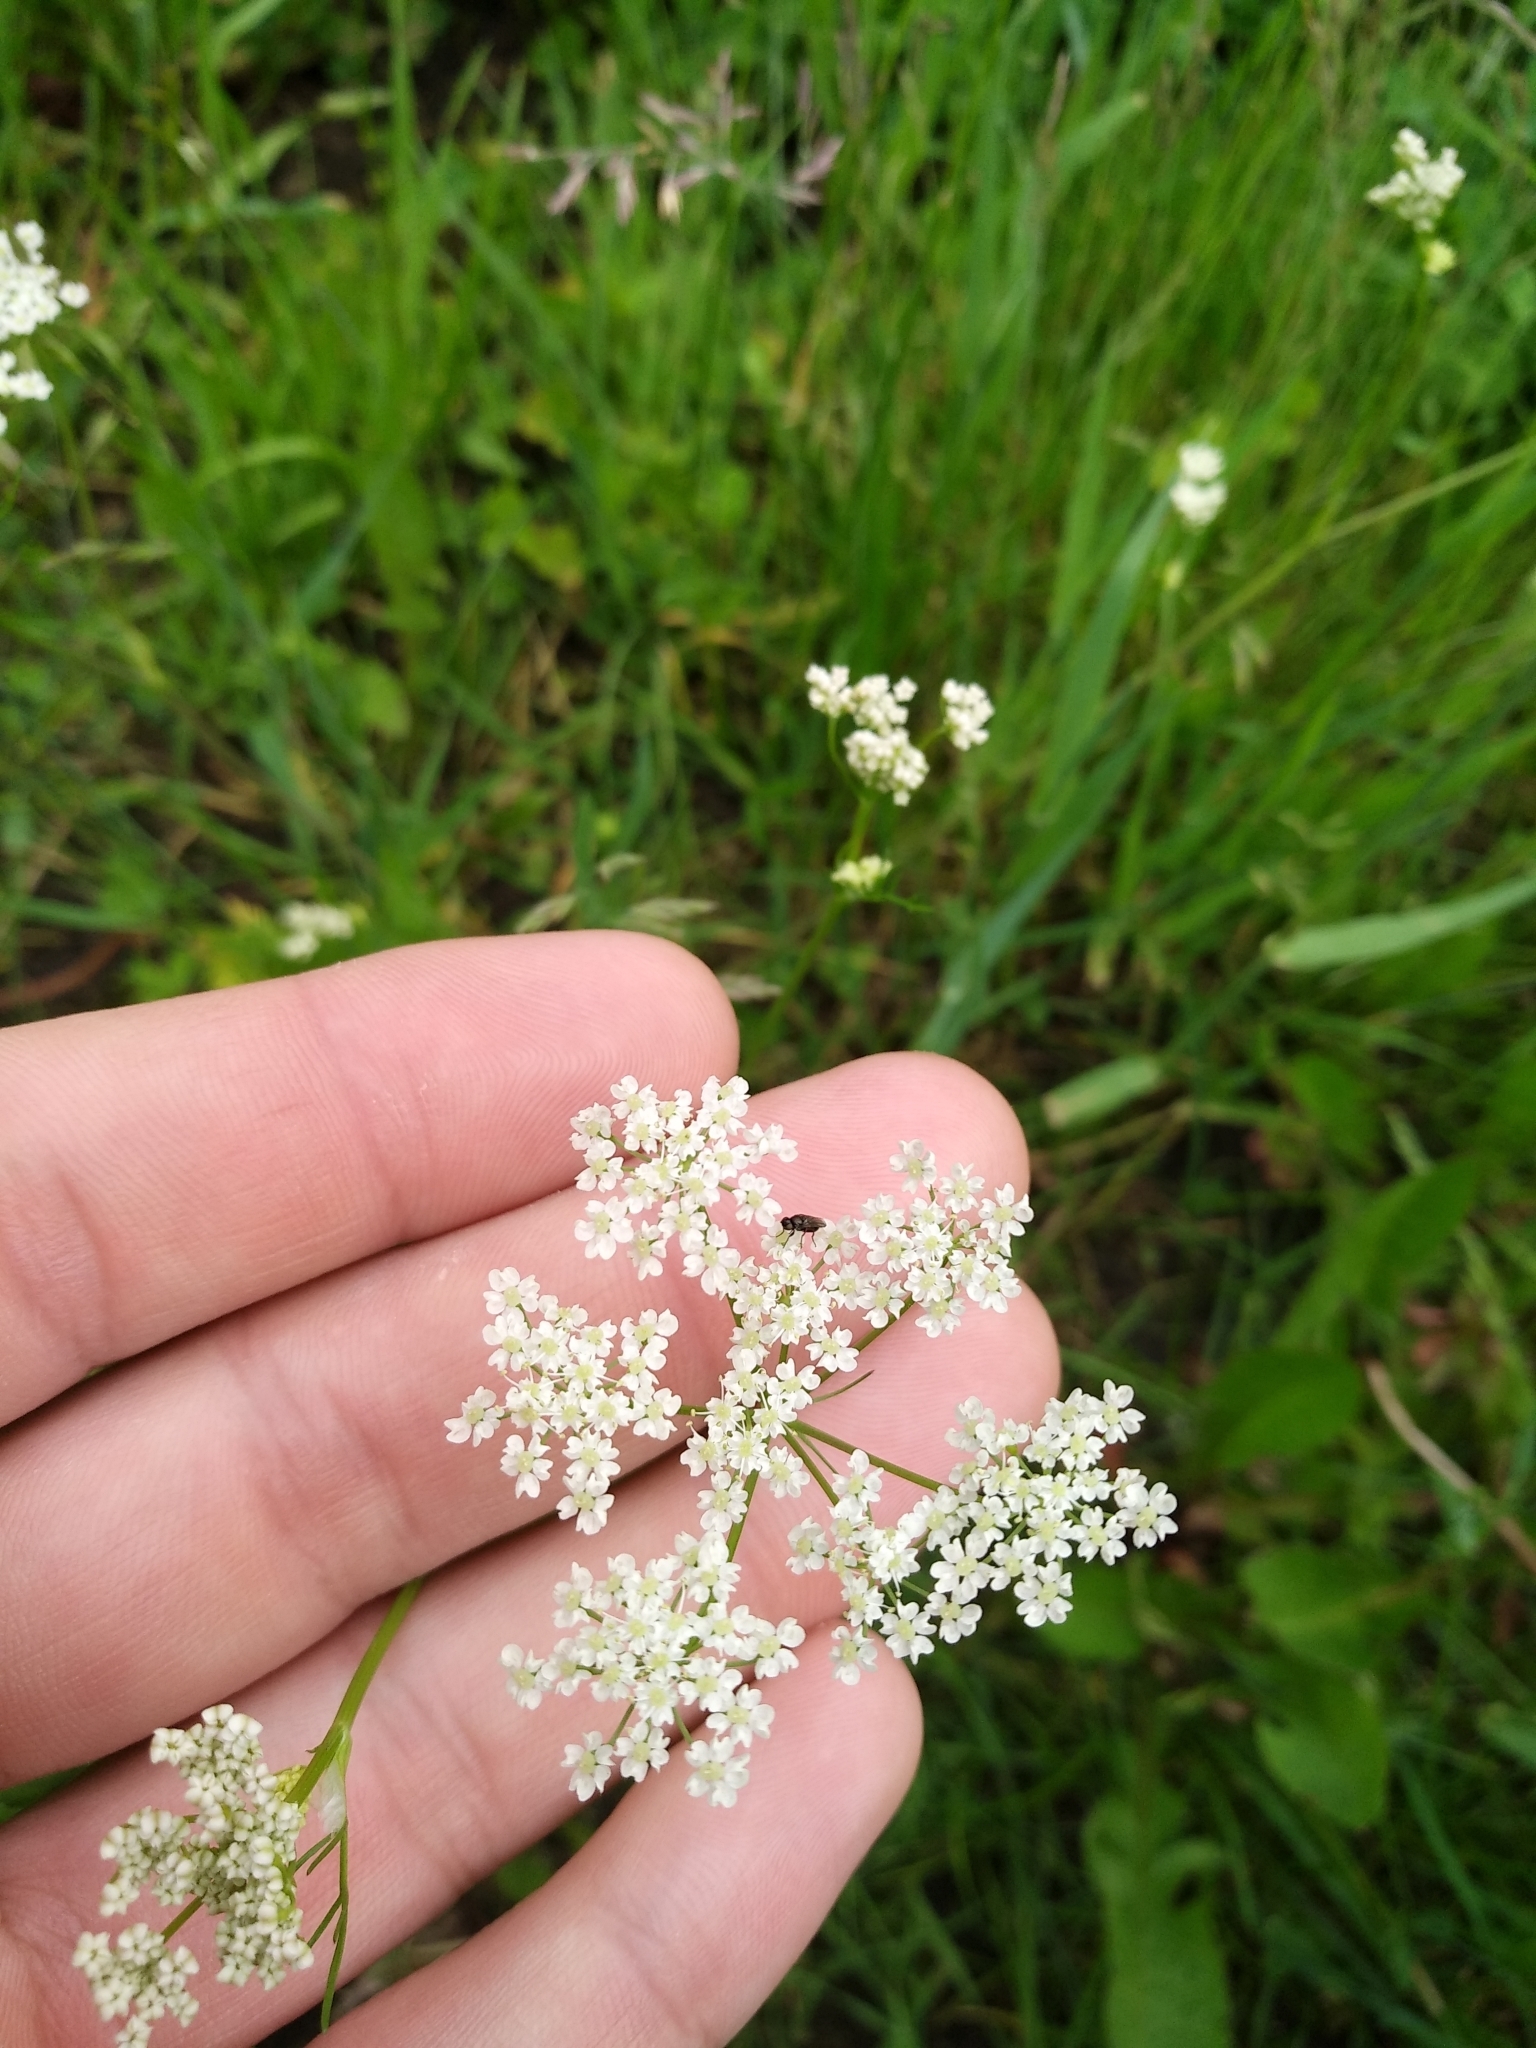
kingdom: Plantae
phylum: Tracheophyta
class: Magnoliopsida
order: Apiales
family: Apiaceae
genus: Carum
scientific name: Carum carvi
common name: Caraway
